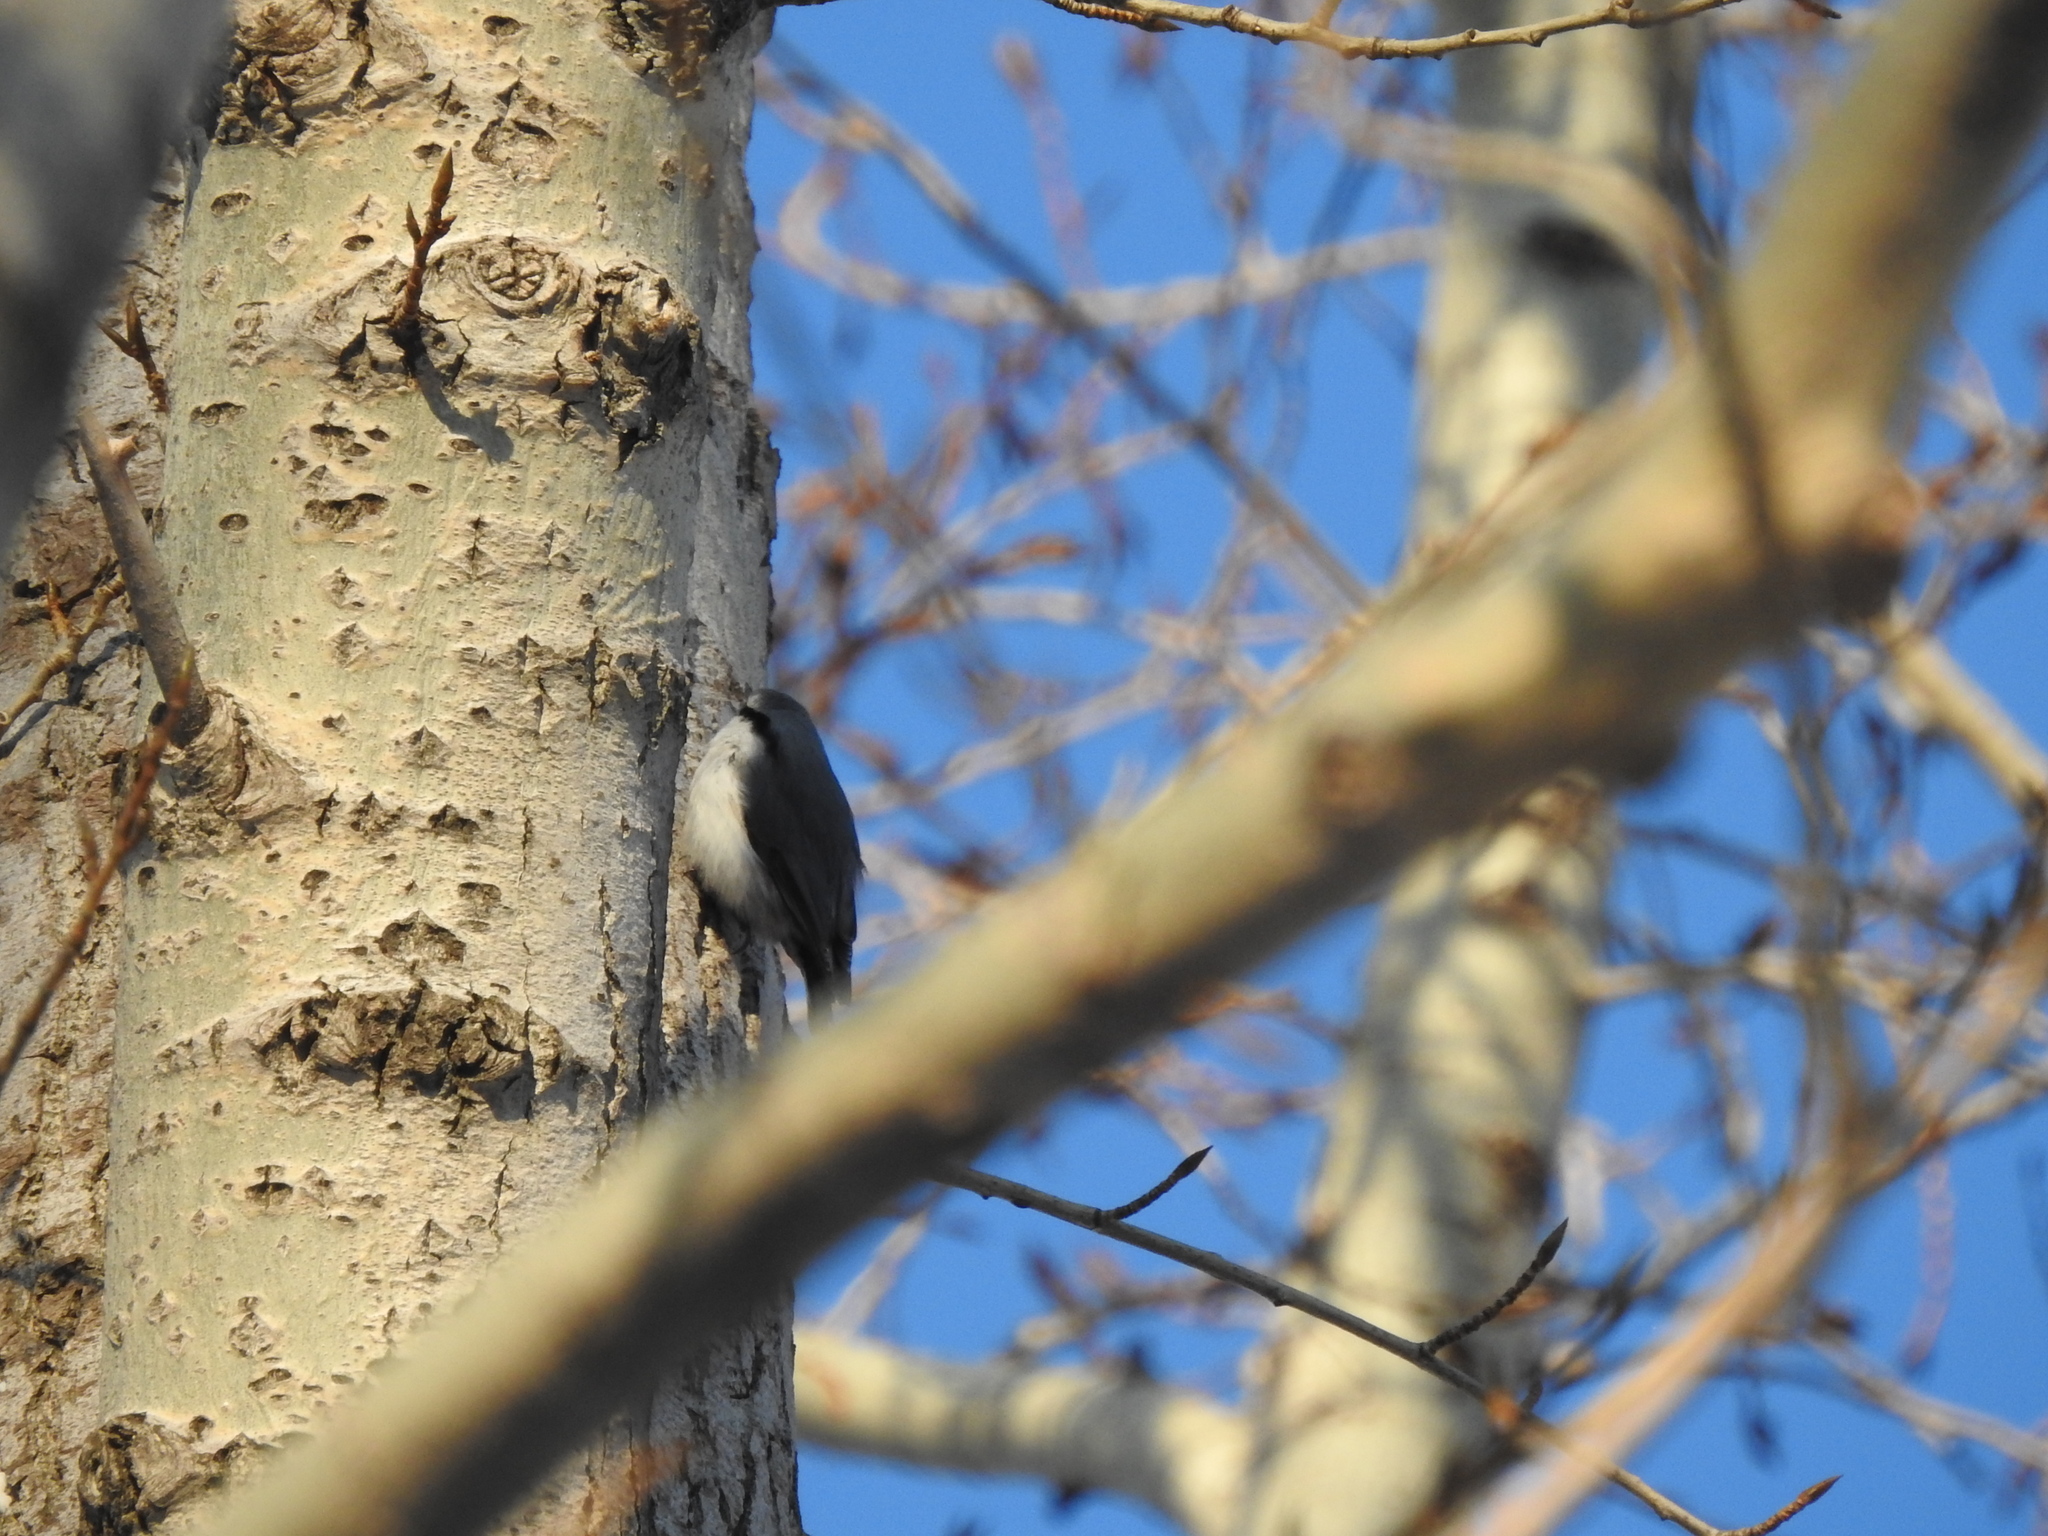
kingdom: Animalia
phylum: Chordata
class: Aves
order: Passeriformes
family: Sittidae
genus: Sitta
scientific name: Sitta europaea
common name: Eurasian nuthatch
